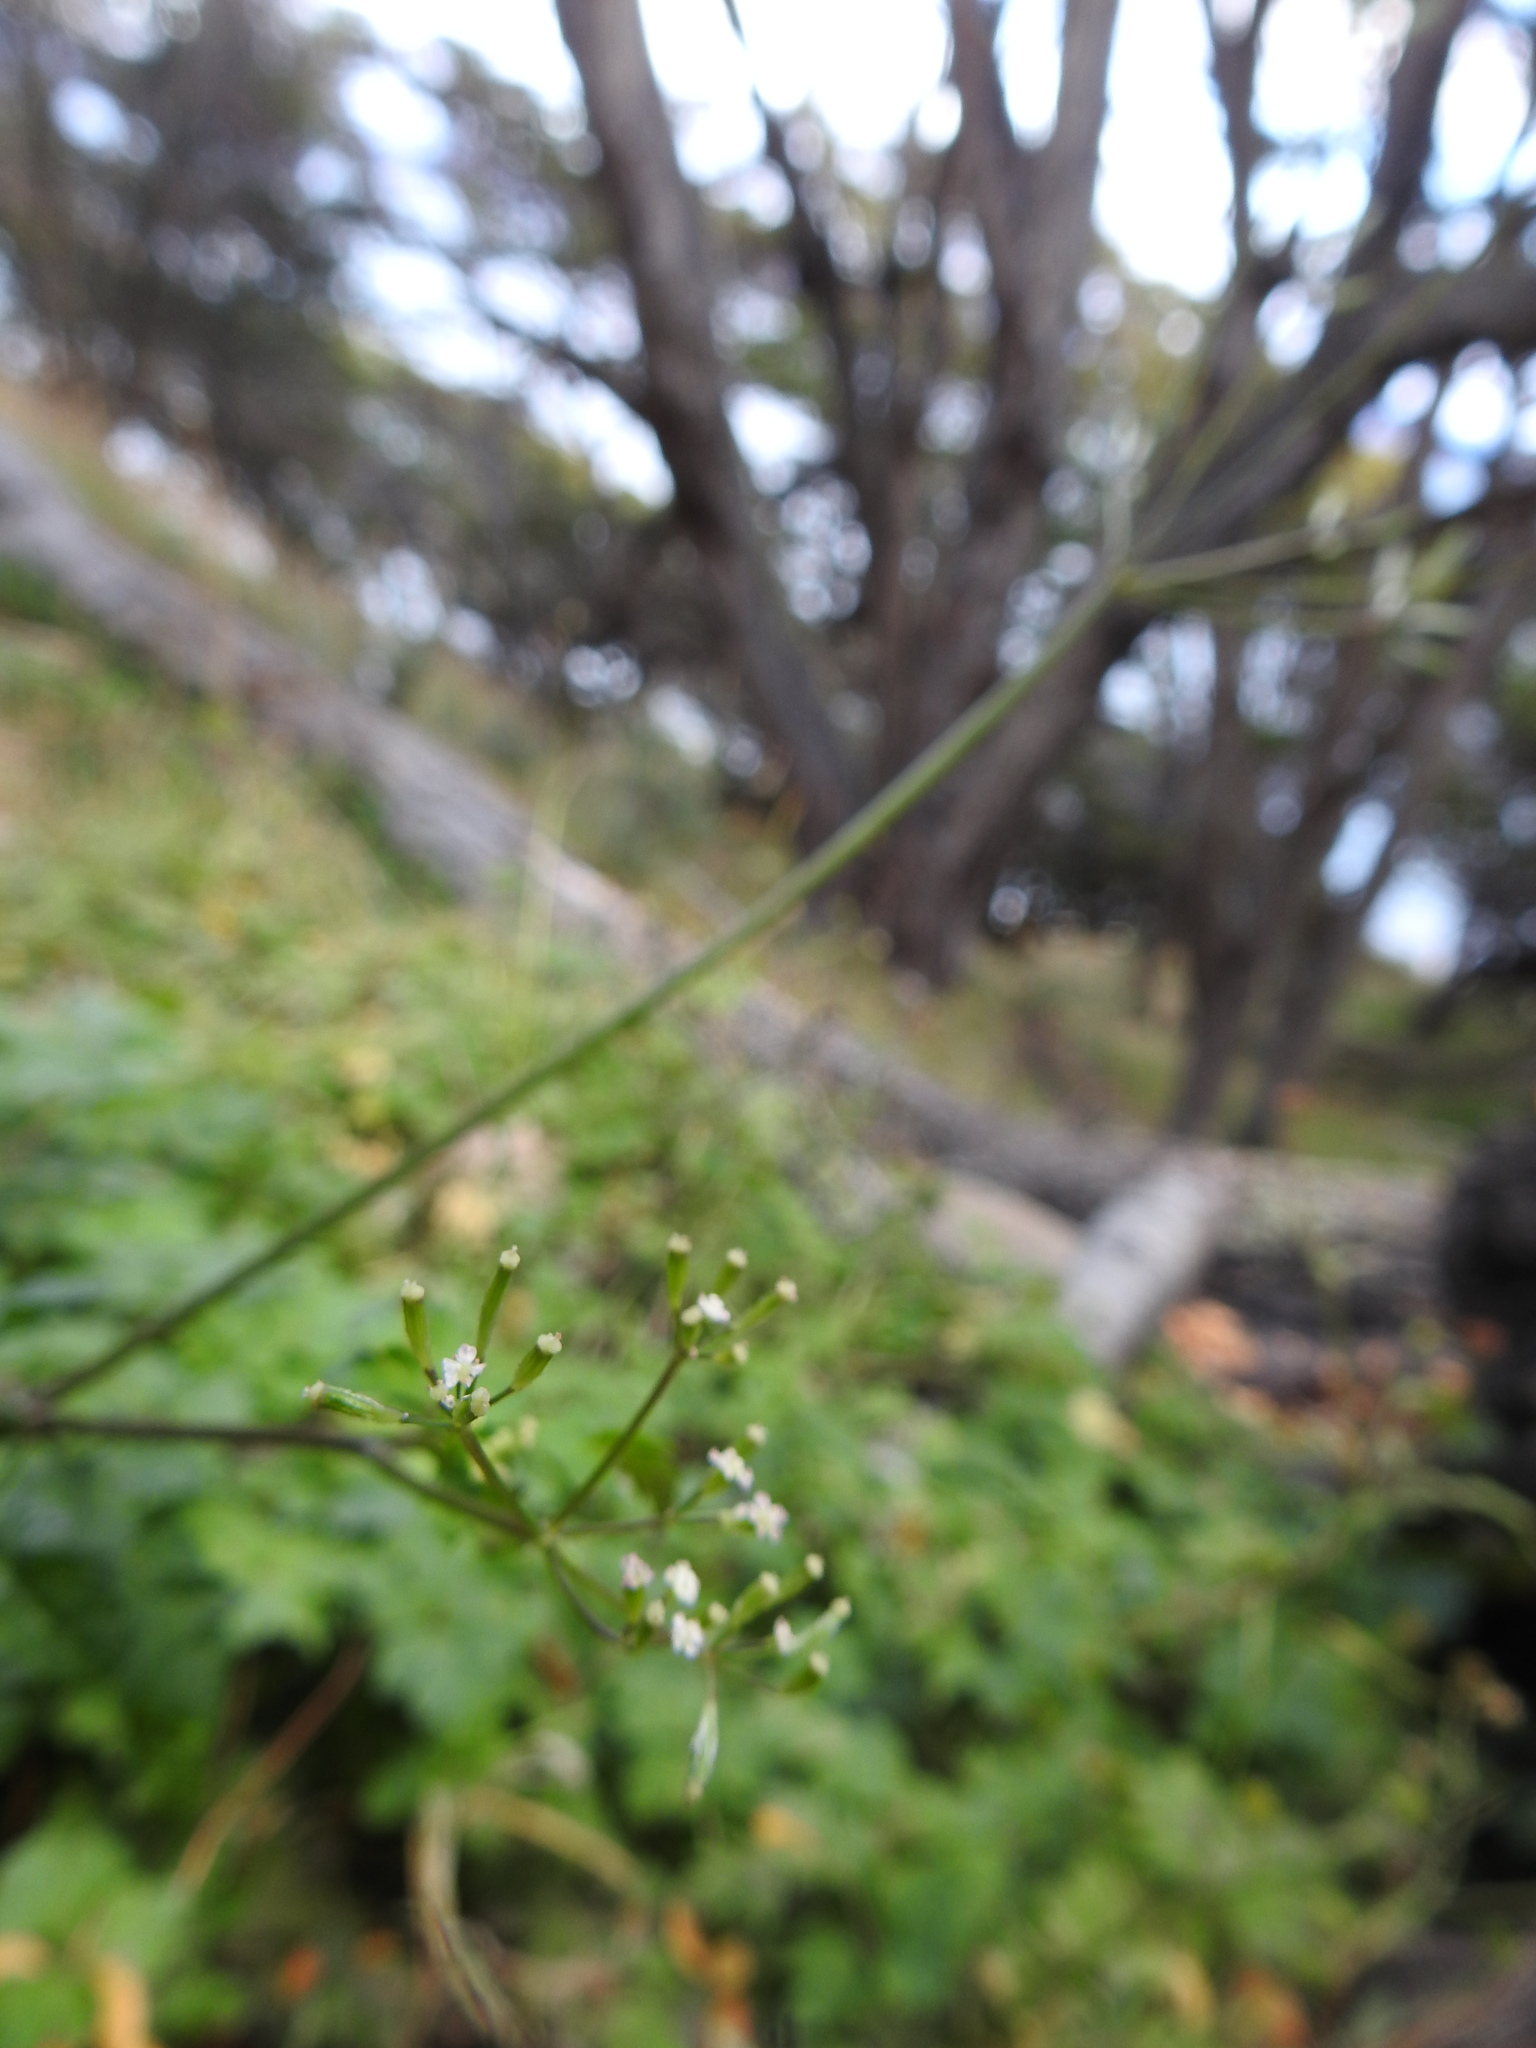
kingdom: Plantae
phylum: Tracheophyta
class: Magnoliopsida
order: Apiales
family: Apiaceae
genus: Osmorhiza
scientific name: Osmorhiza berteroi
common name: Mountain sweet cicely
